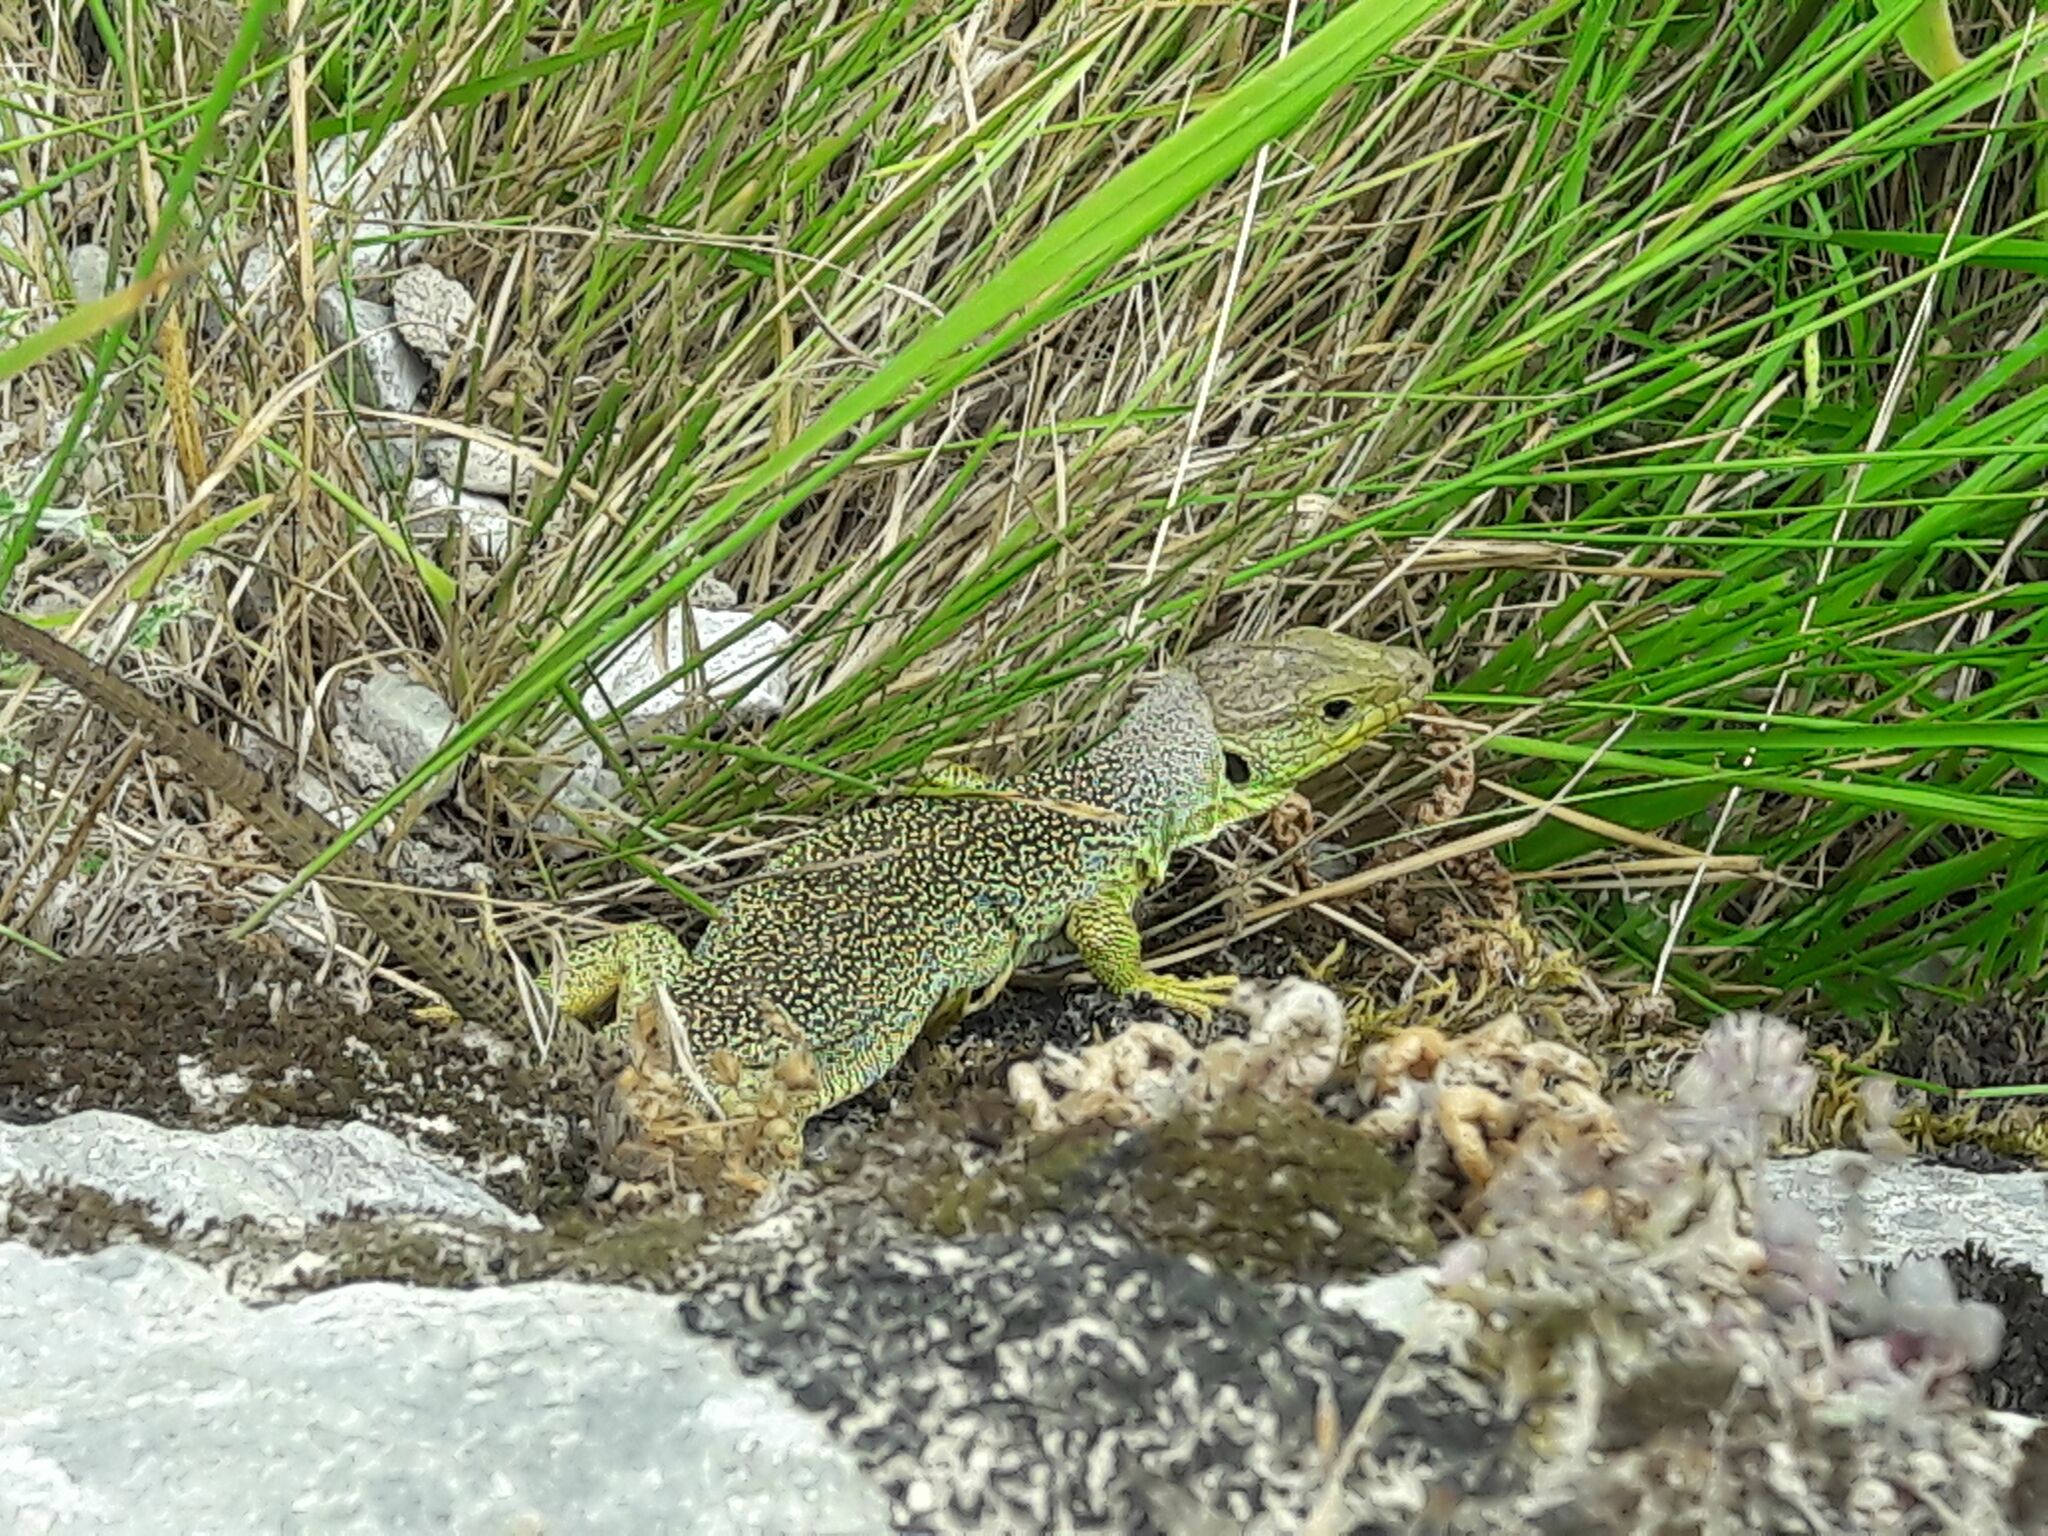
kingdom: Animalia
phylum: Chordata
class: Squamata
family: Lacertidae
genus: Timon
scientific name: Timon lepidus
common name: Ocellated lizard
